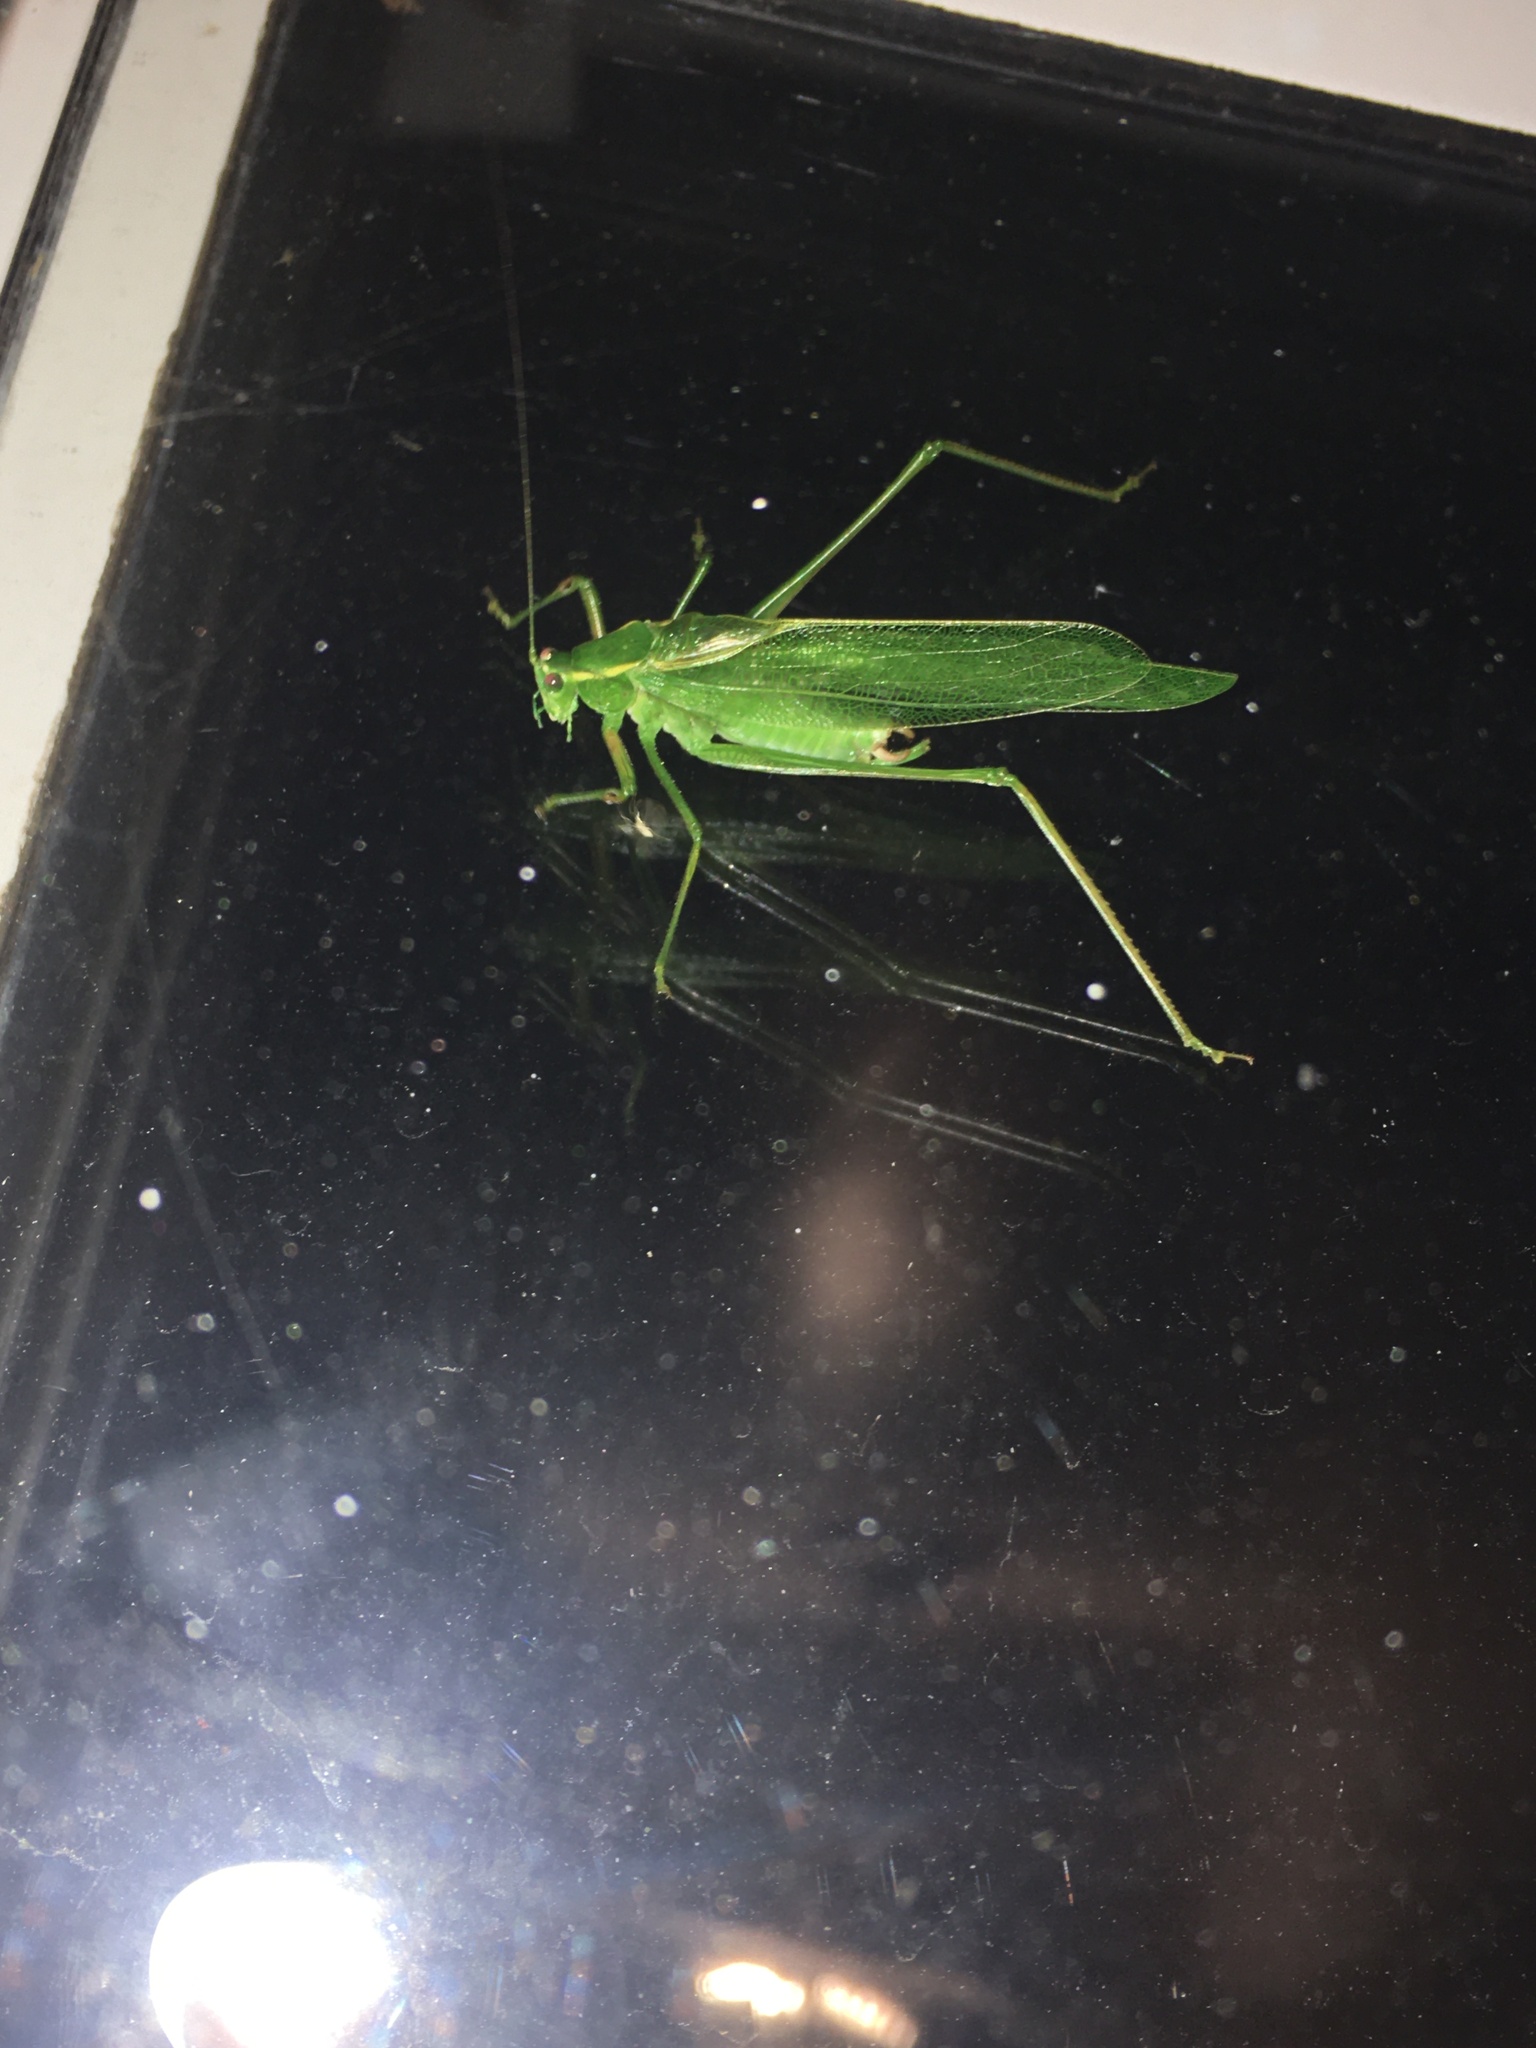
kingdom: Animalia
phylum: Arthropoda
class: Insecta
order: Orthoptera
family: Tettigoniidae
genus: Scudderia
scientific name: Scudderia septentrionalis
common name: Northern bush-katydid
